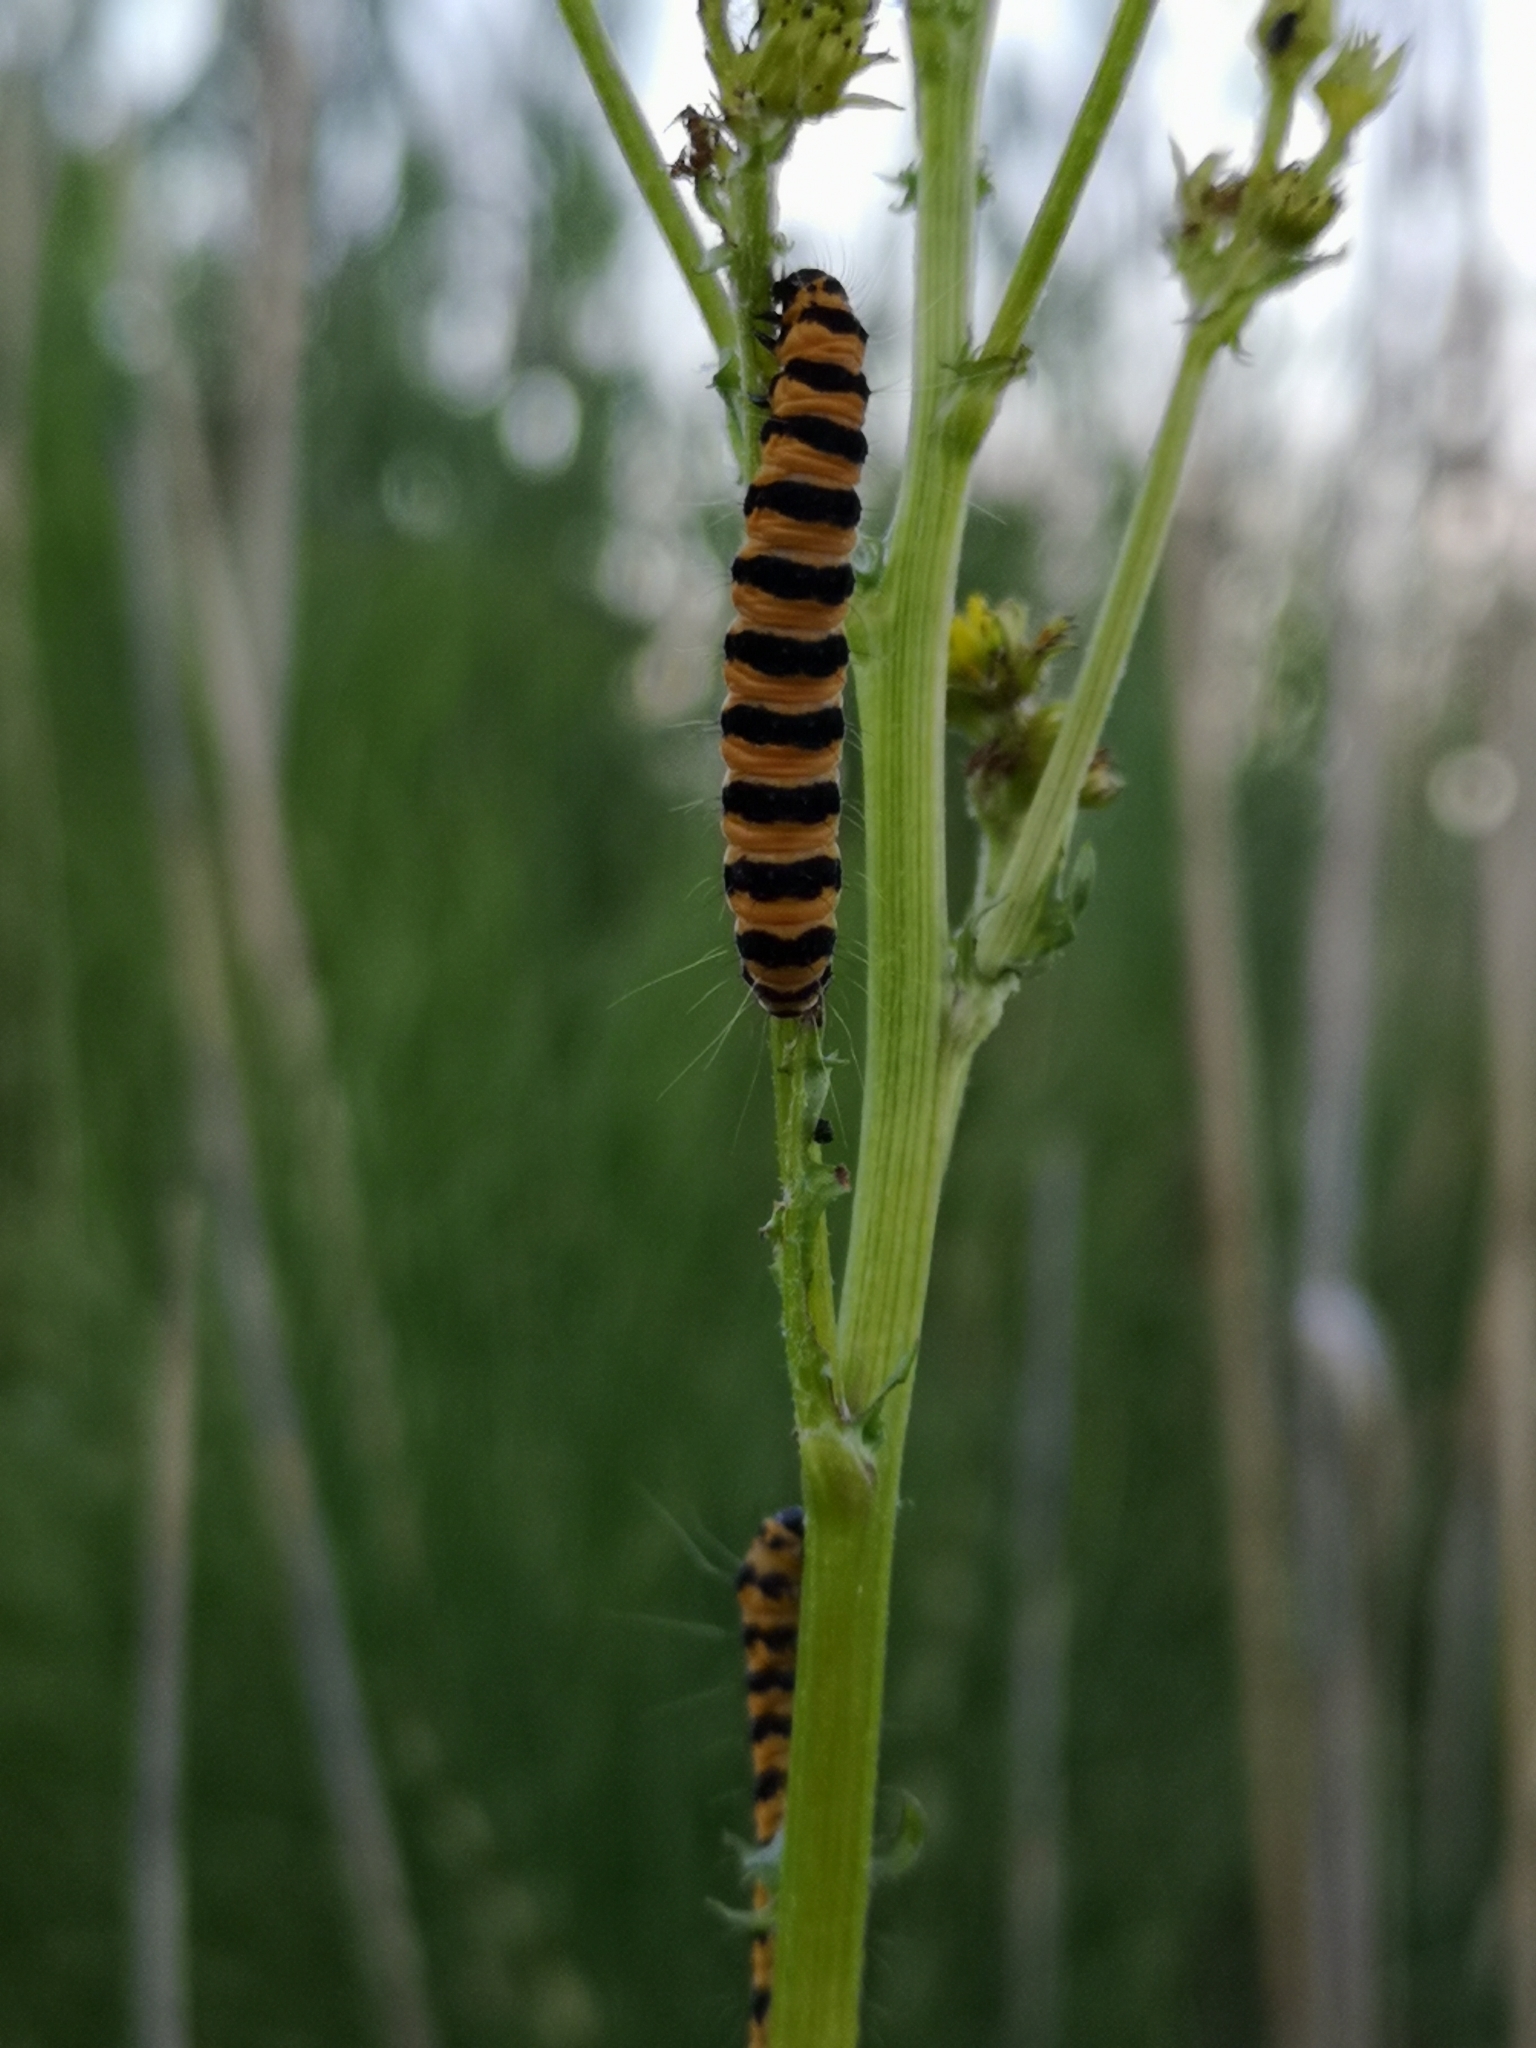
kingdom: Animalia
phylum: Arthropoda
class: Insecta
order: Lepidoptera
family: Erebidae
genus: Tyria
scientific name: Tyria jacobaeae
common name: Cinnabar
